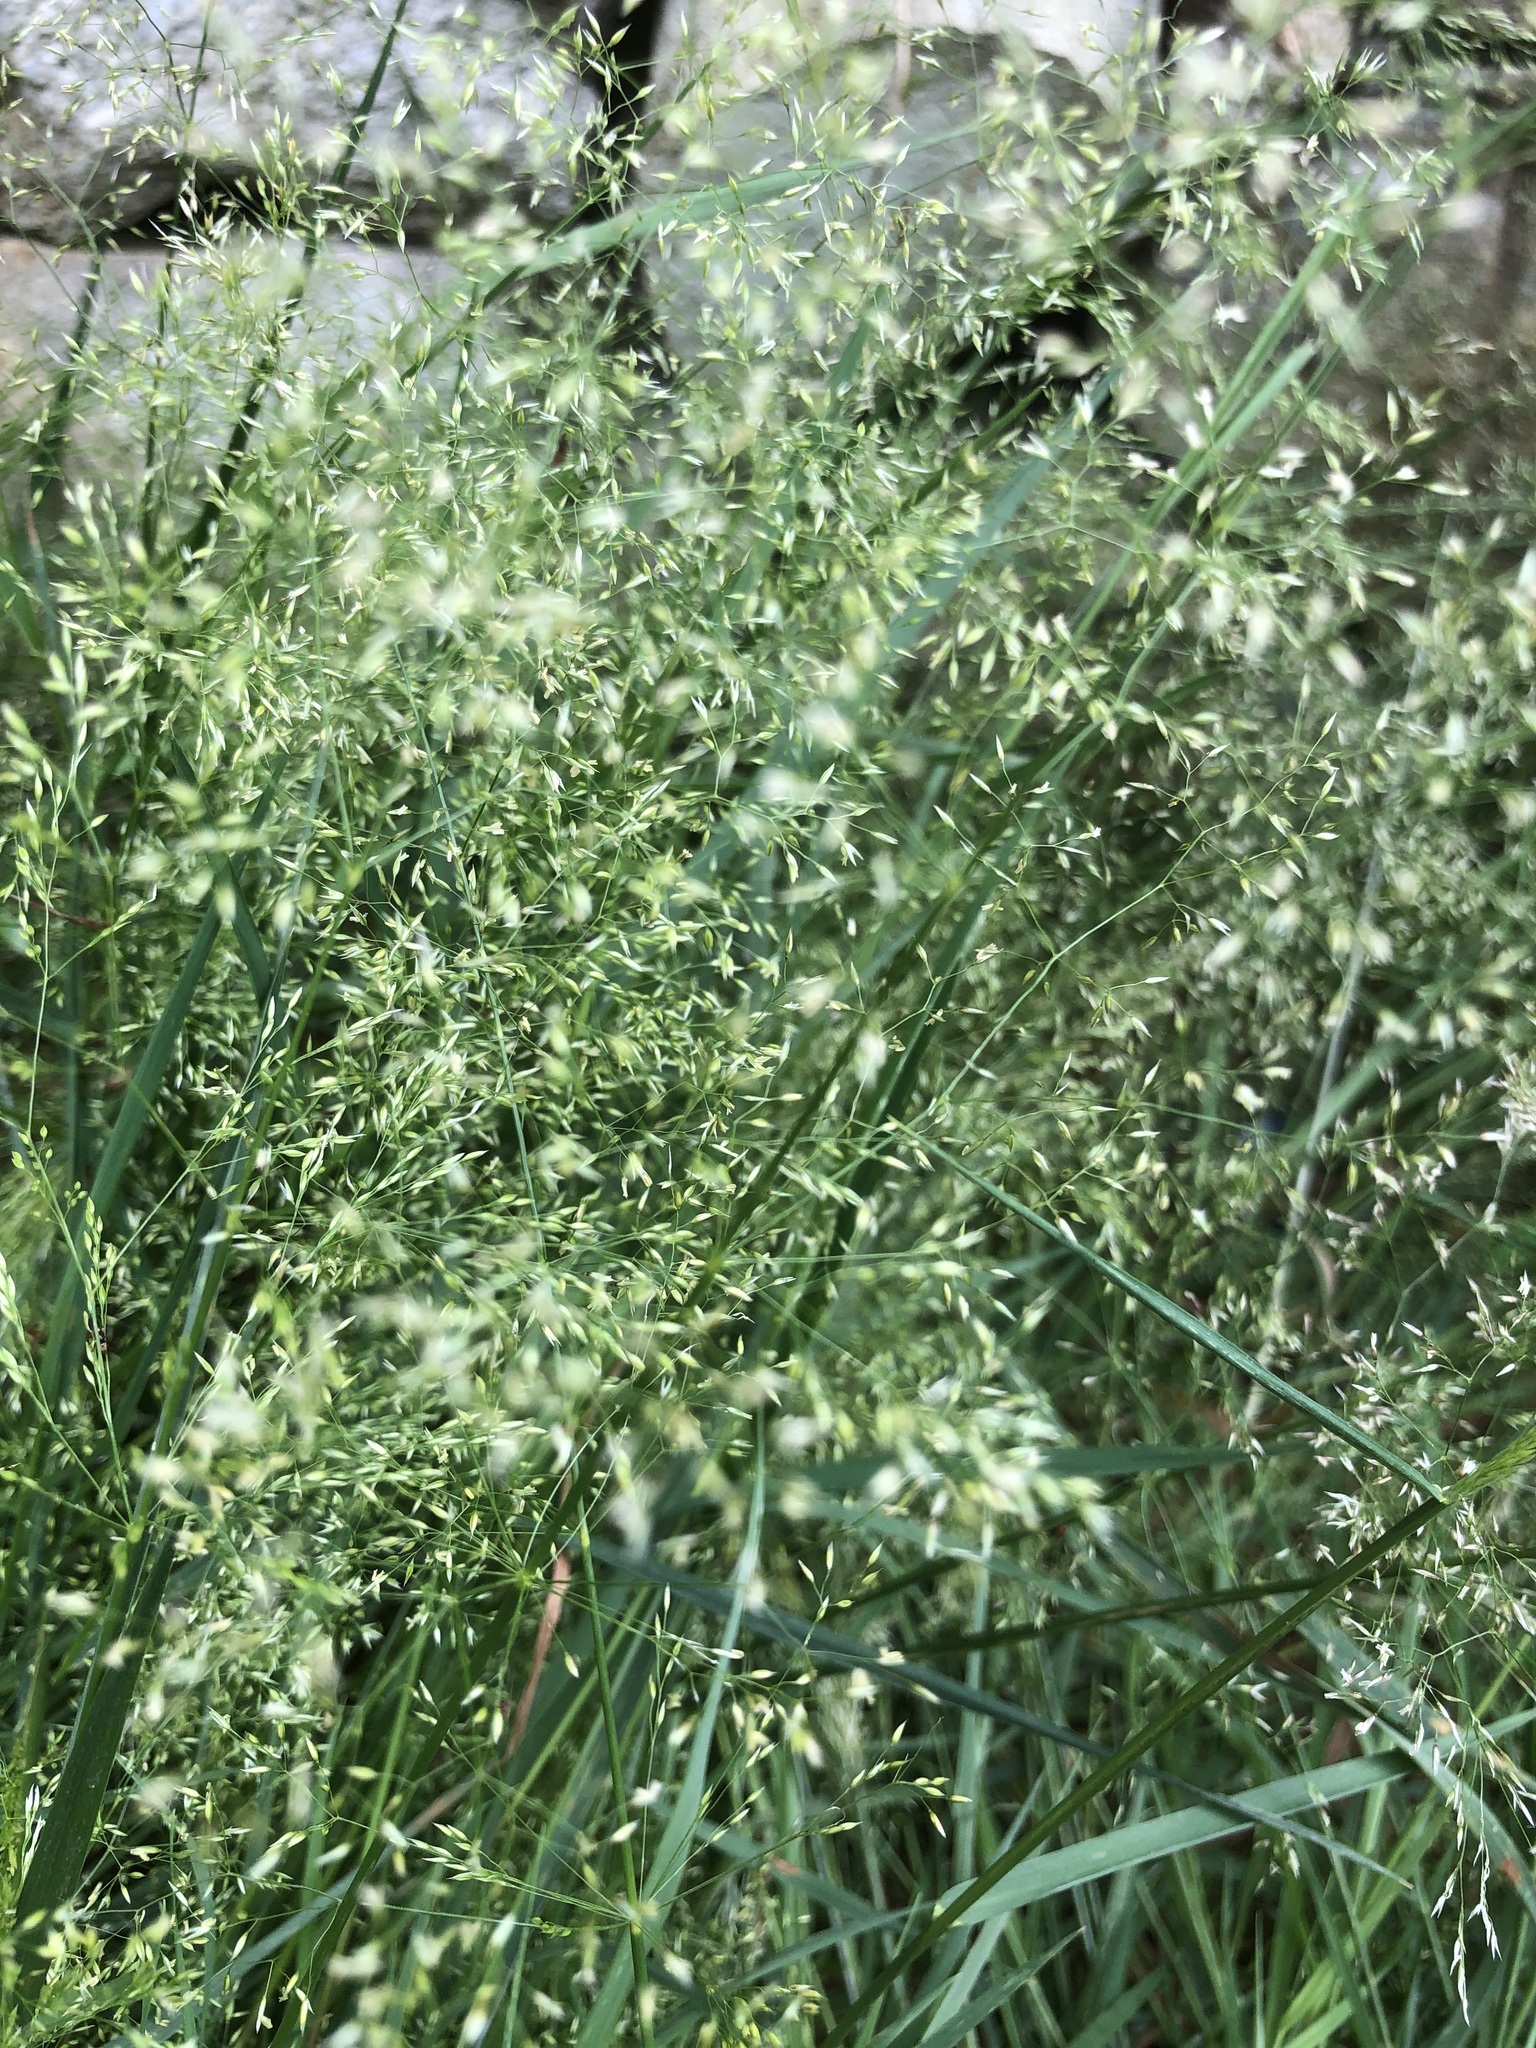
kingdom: Plantae
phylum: Tracheophyta
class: Liliopsida
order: Poales
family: Poaceae
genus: Poa
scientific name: Poa pratensis
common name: Kentucky bluegrass
